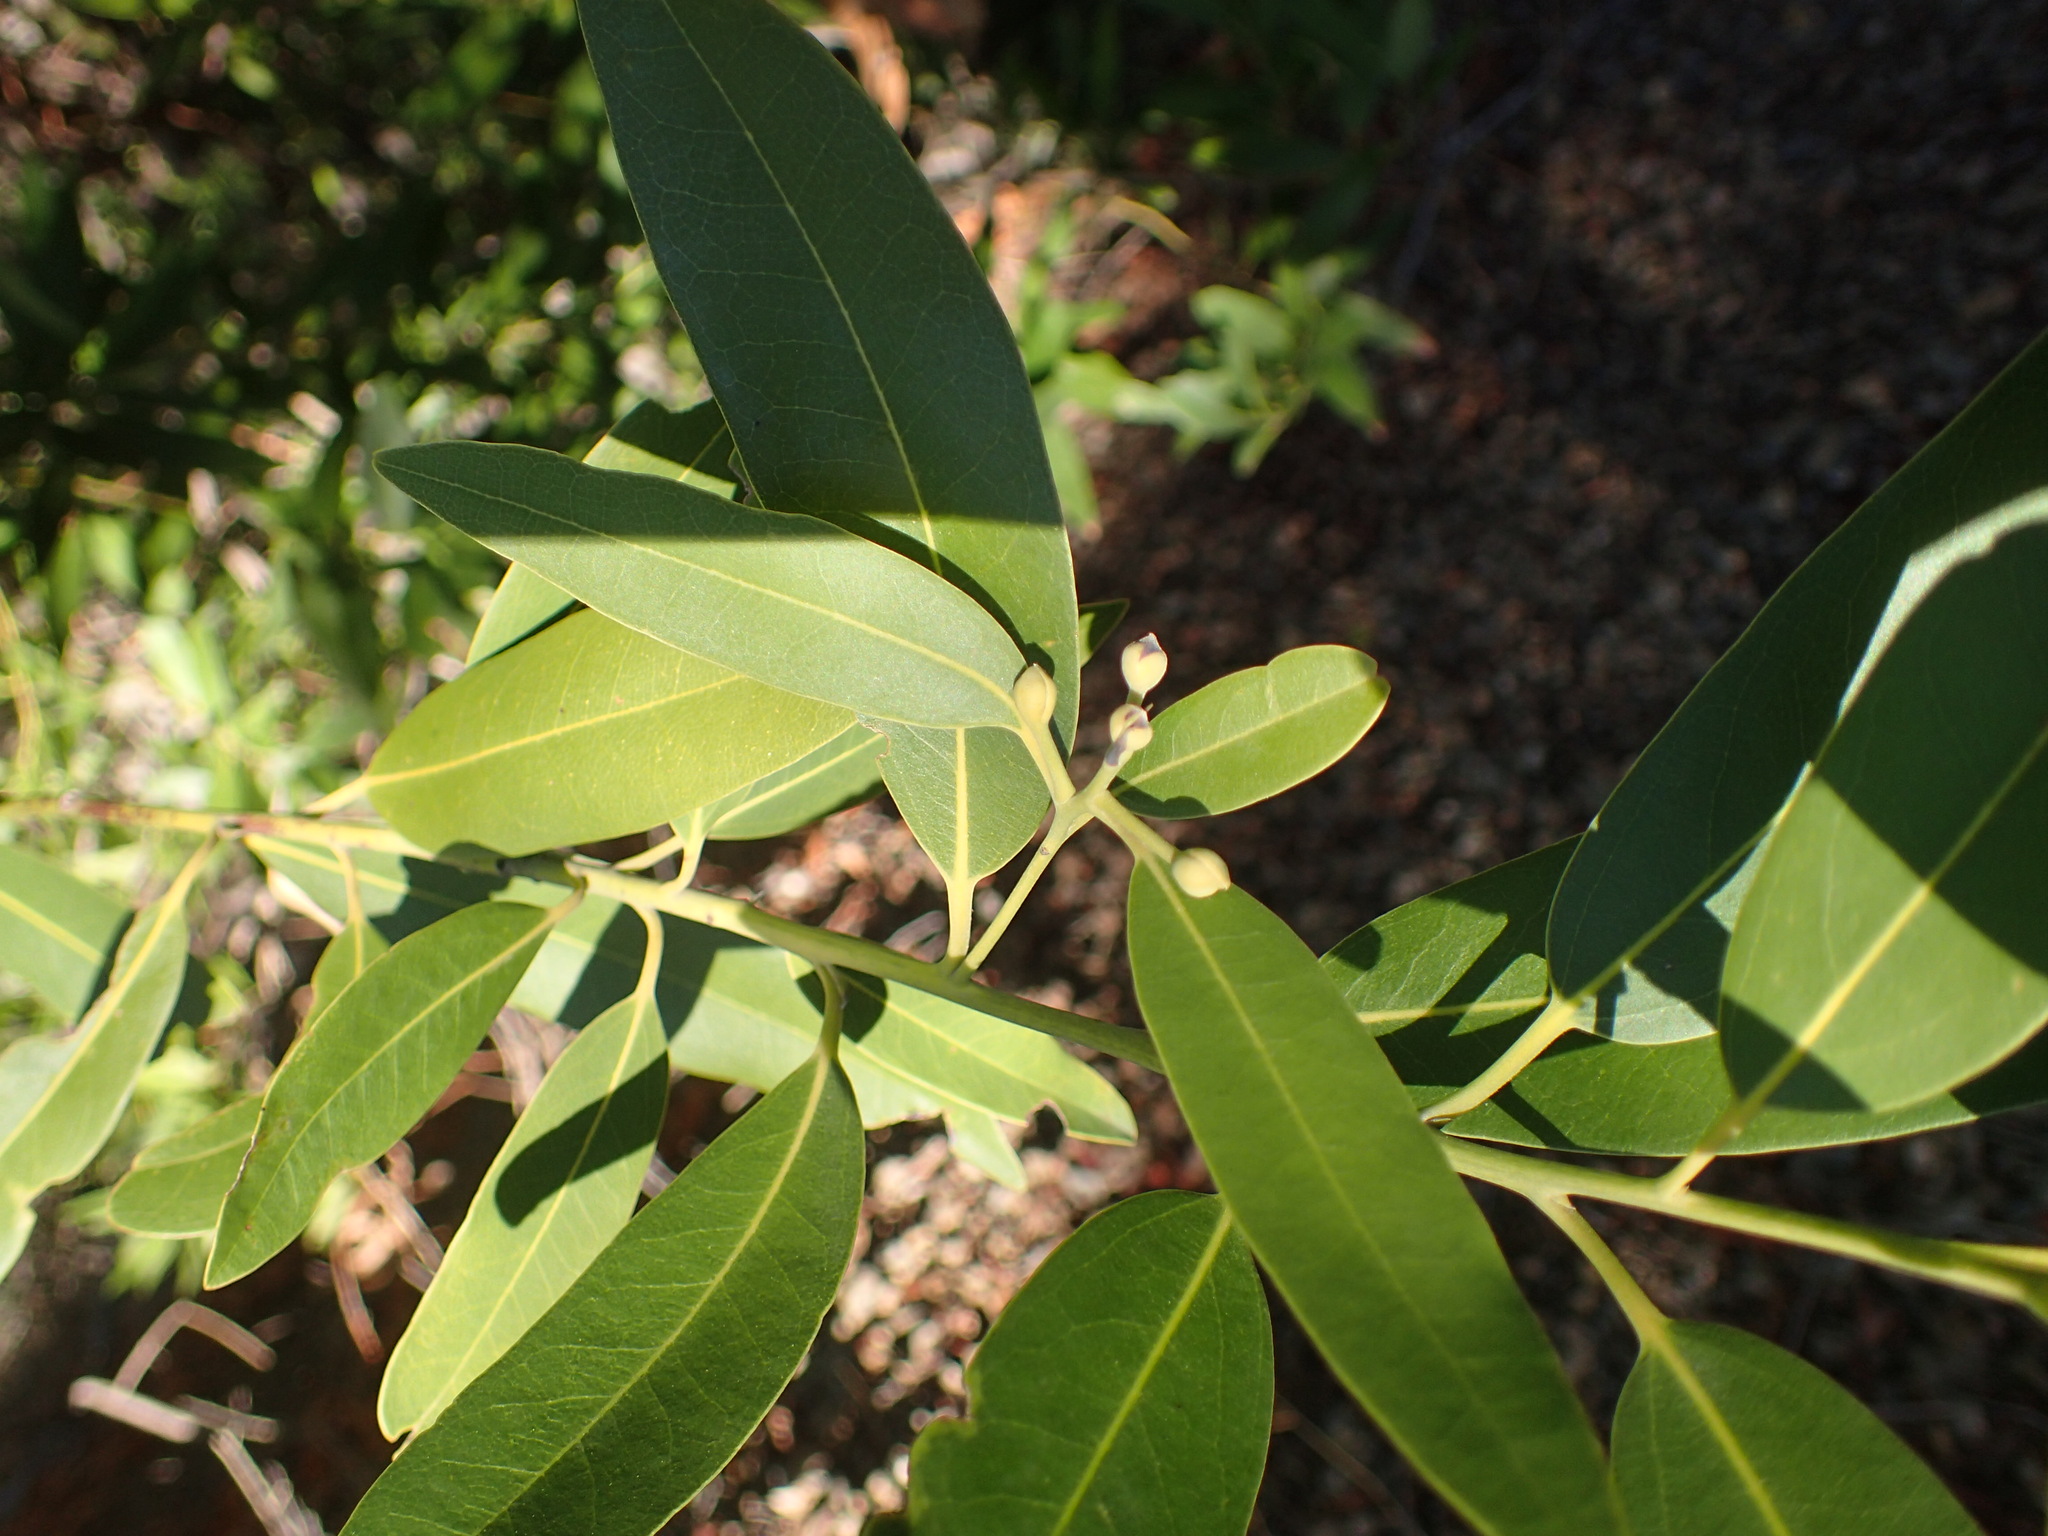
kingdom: Plantae
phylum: Tracheophyta
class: Magnoliopsida
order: Laurales
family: Lauraceae
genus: Umbellularia
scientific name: Umbellularia californica
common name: California bay
